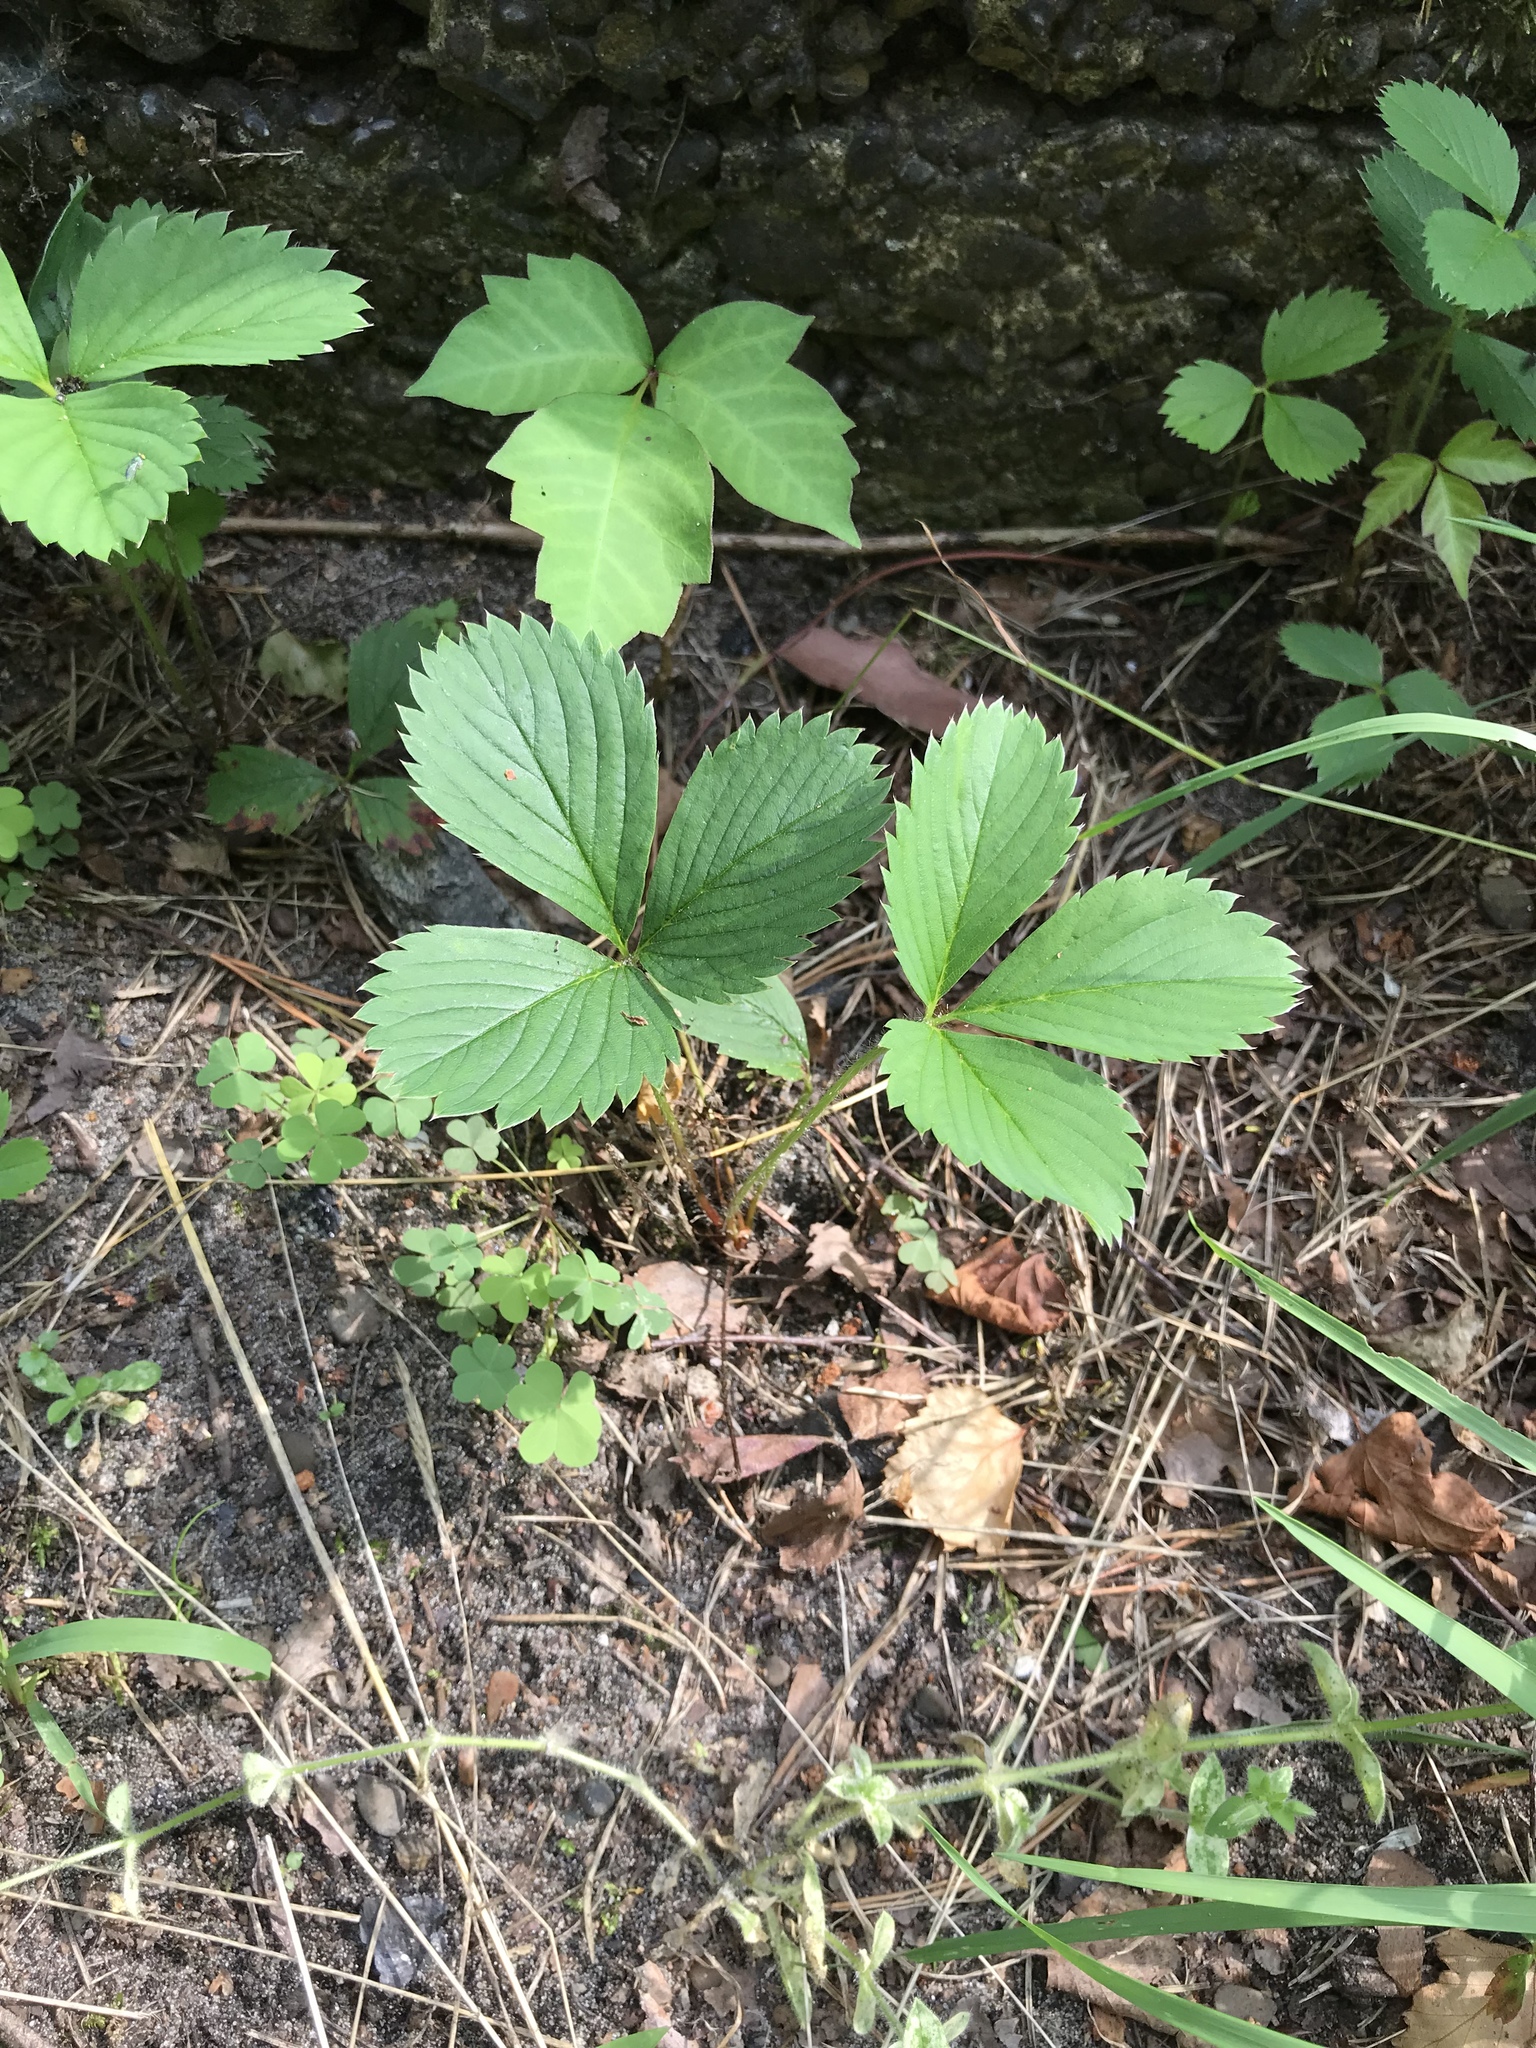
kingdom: Plantae
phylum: Tracheophyta
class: Magnoliopsida
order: Rosales
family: Rosaceae
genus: Fragaria
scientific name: Fragaria virginiana
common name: Thickleaved wild strawberry
